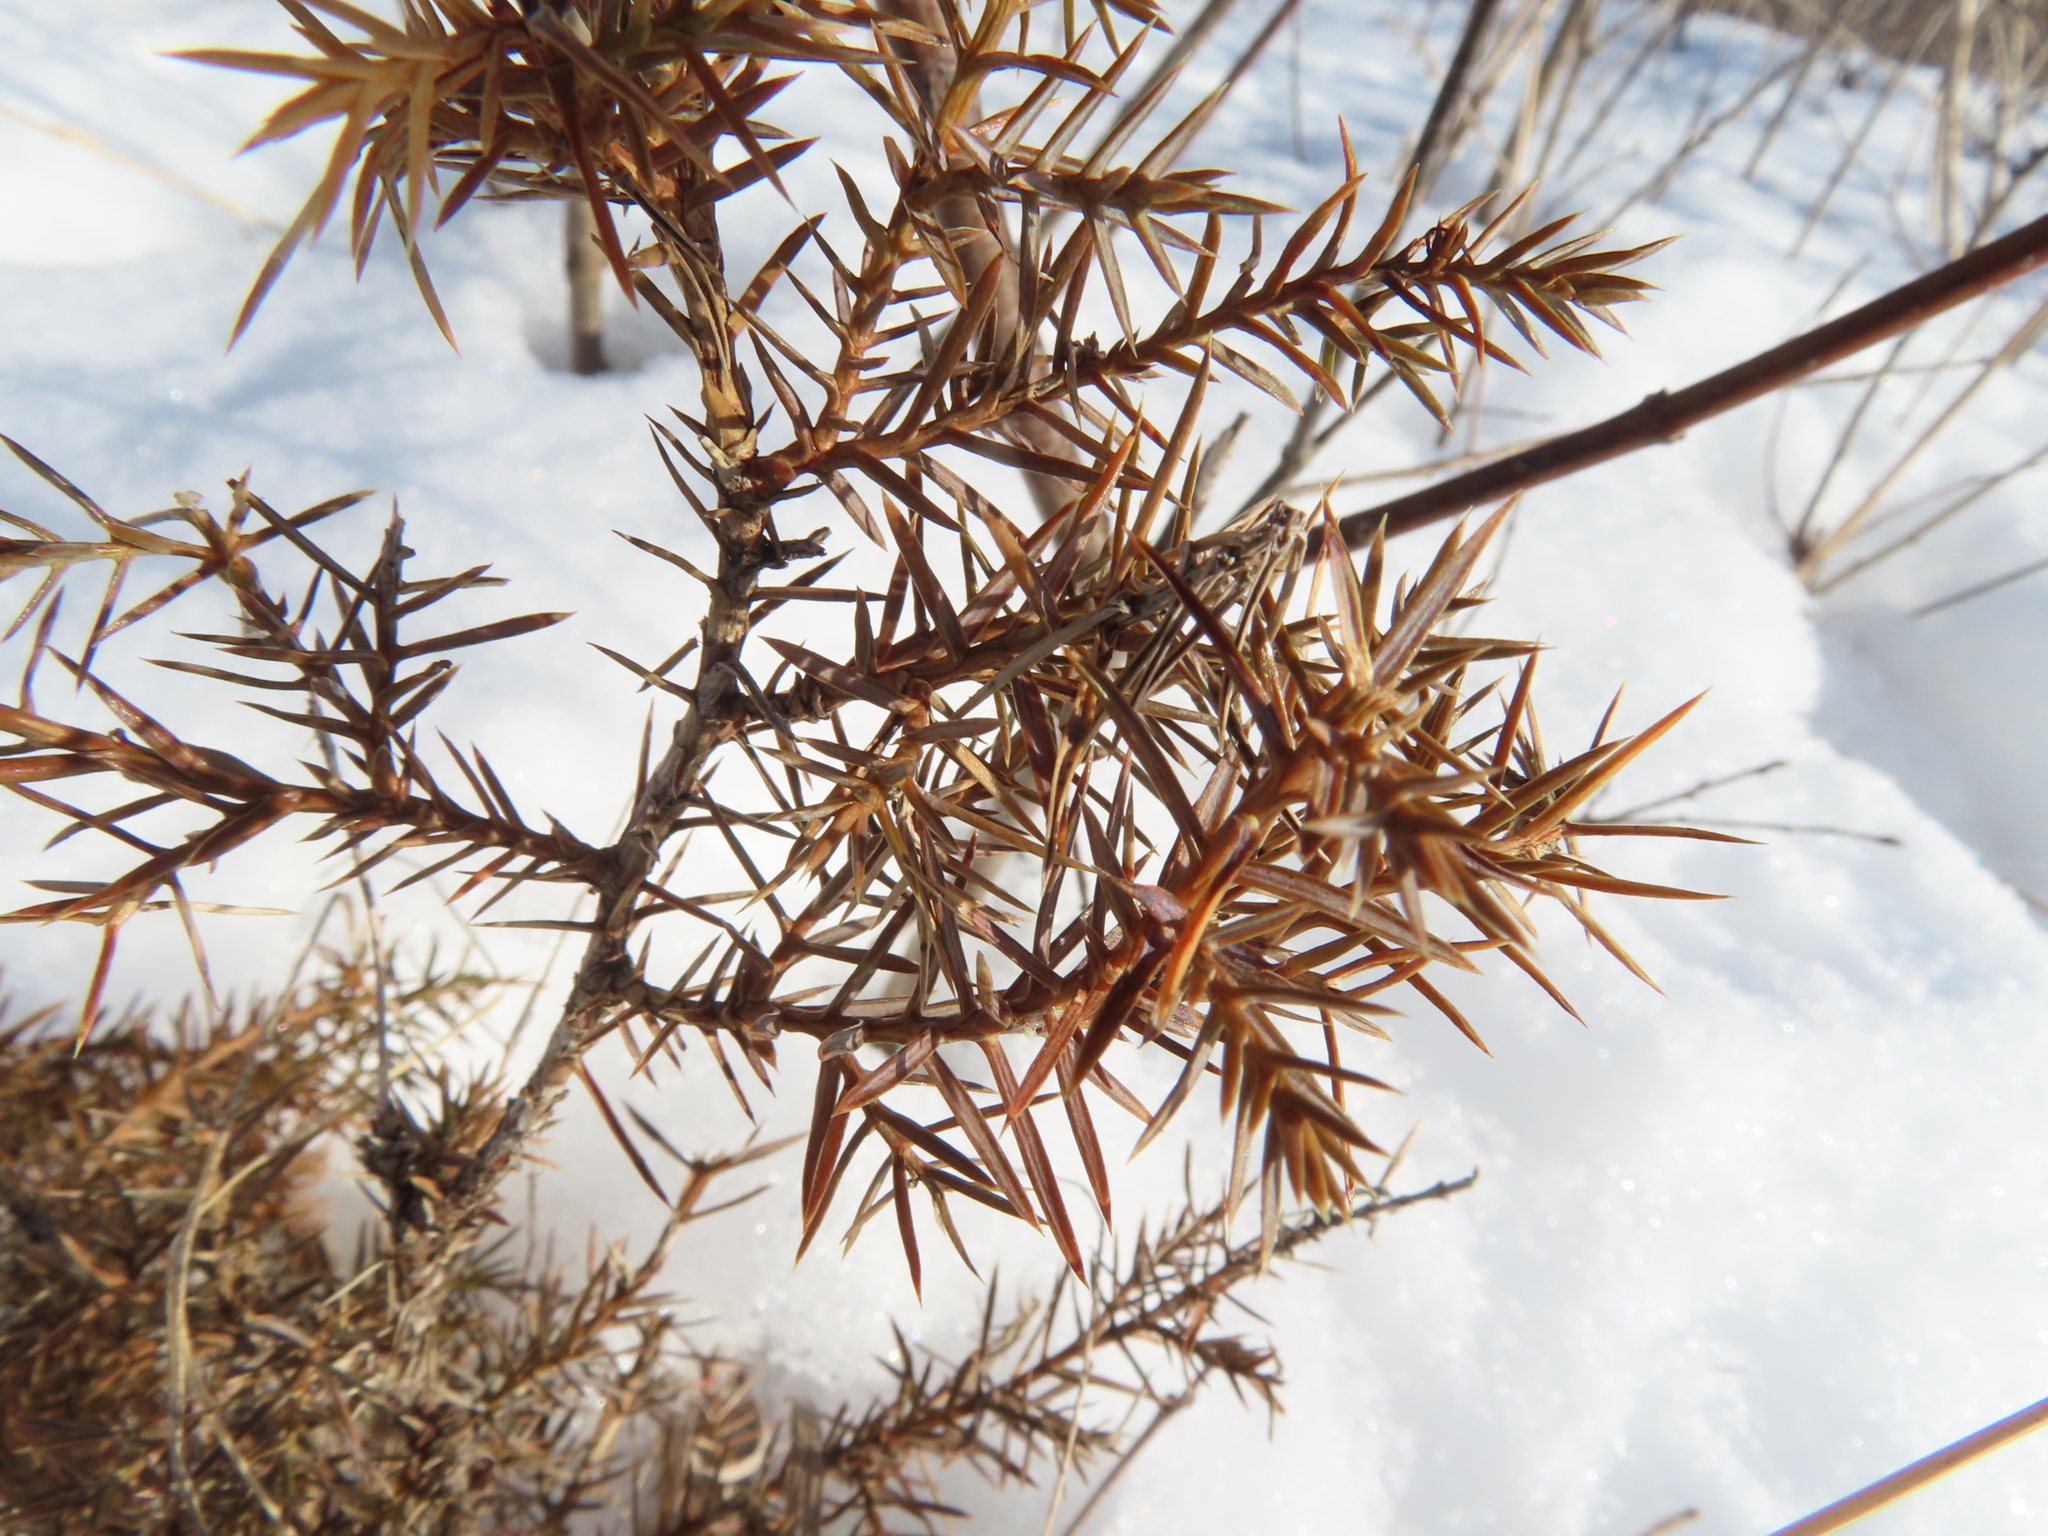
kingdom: Plantae
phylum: Tracheophyta
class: Pinopsida
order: Pinales
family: Cupressaceae
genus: Juniperus
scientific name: Juniperus virginiana
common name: Red juniper
